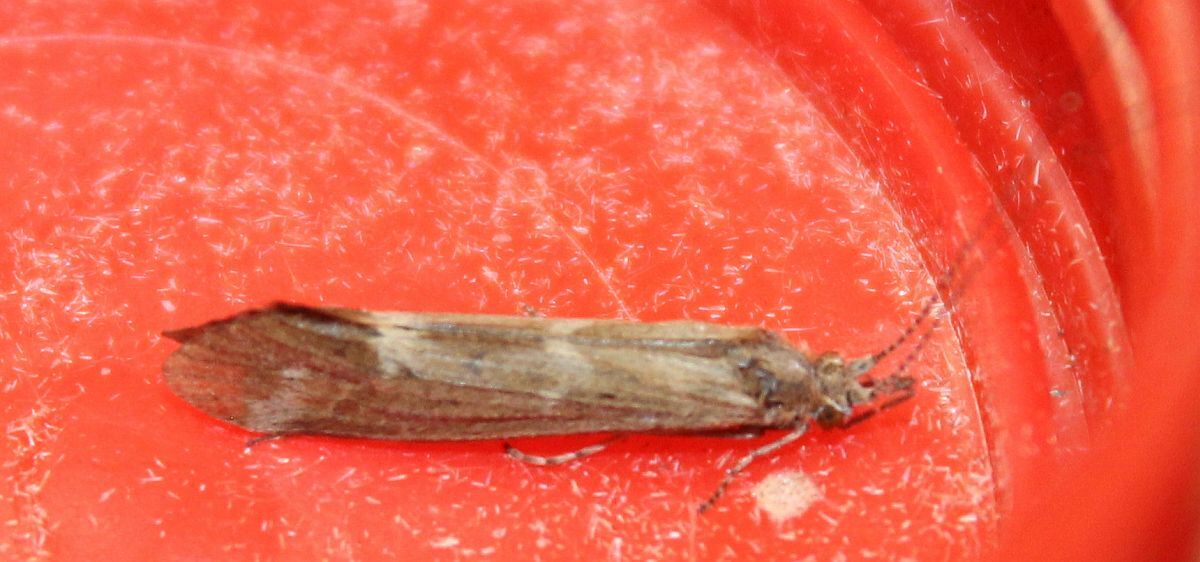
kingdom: Animalia
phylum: Arthropoda
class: Insecta
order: Trichoptera
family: Leptoceridae
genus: Athripsodes
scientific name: Athripsodes cinereus
